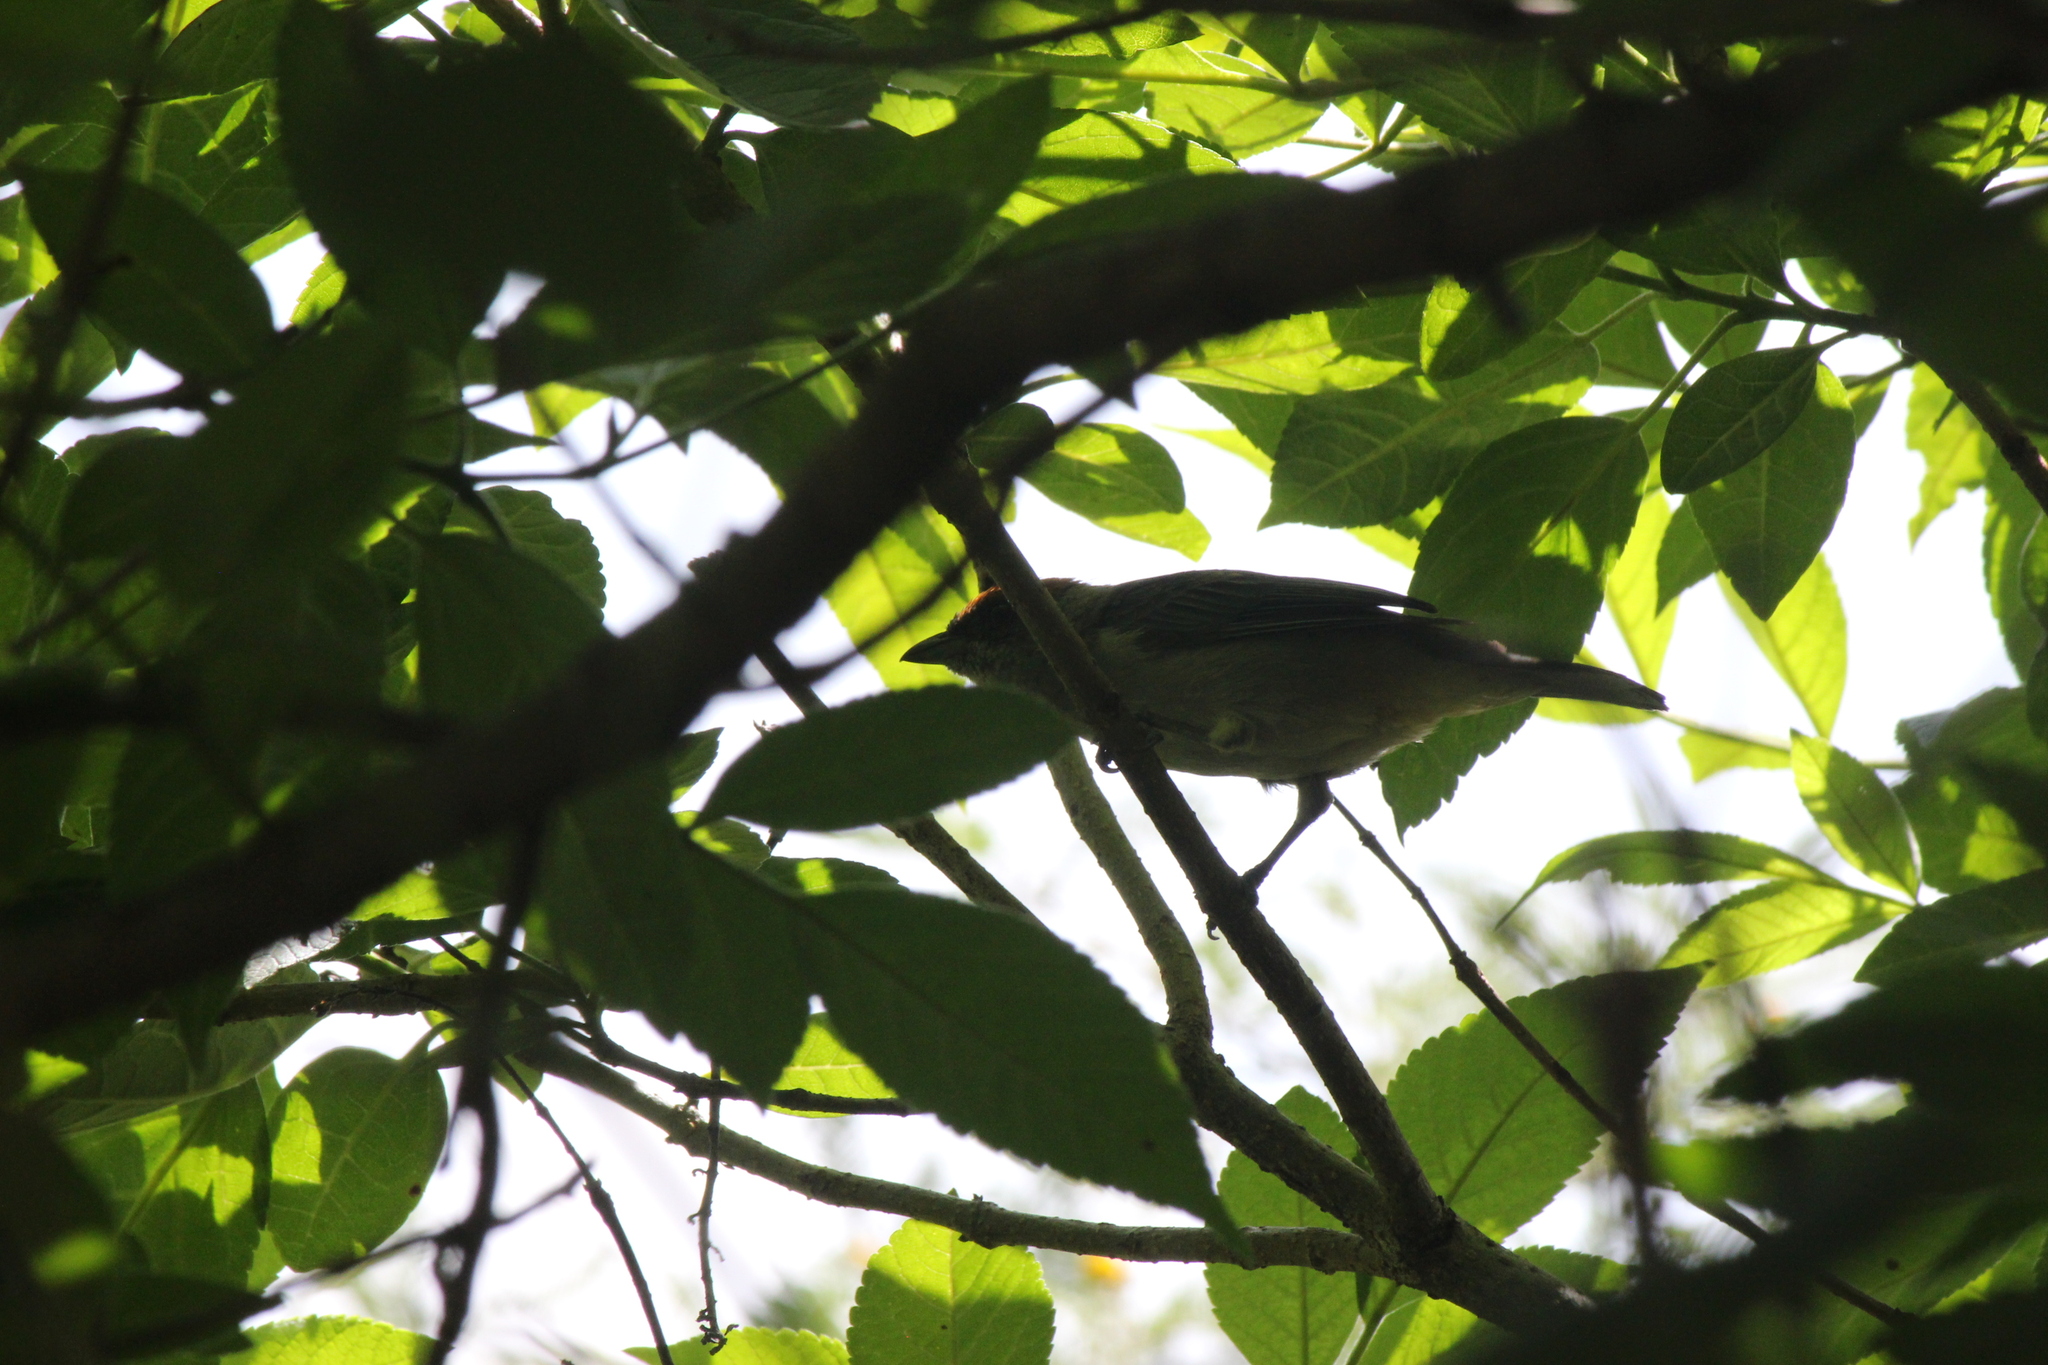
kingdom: Animalia
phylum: Chordata
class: Aves
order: Passeriformes
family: Thraupidae
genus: Stilpnia
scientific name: Stilpnia vitriolina
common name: Scrub tanager
